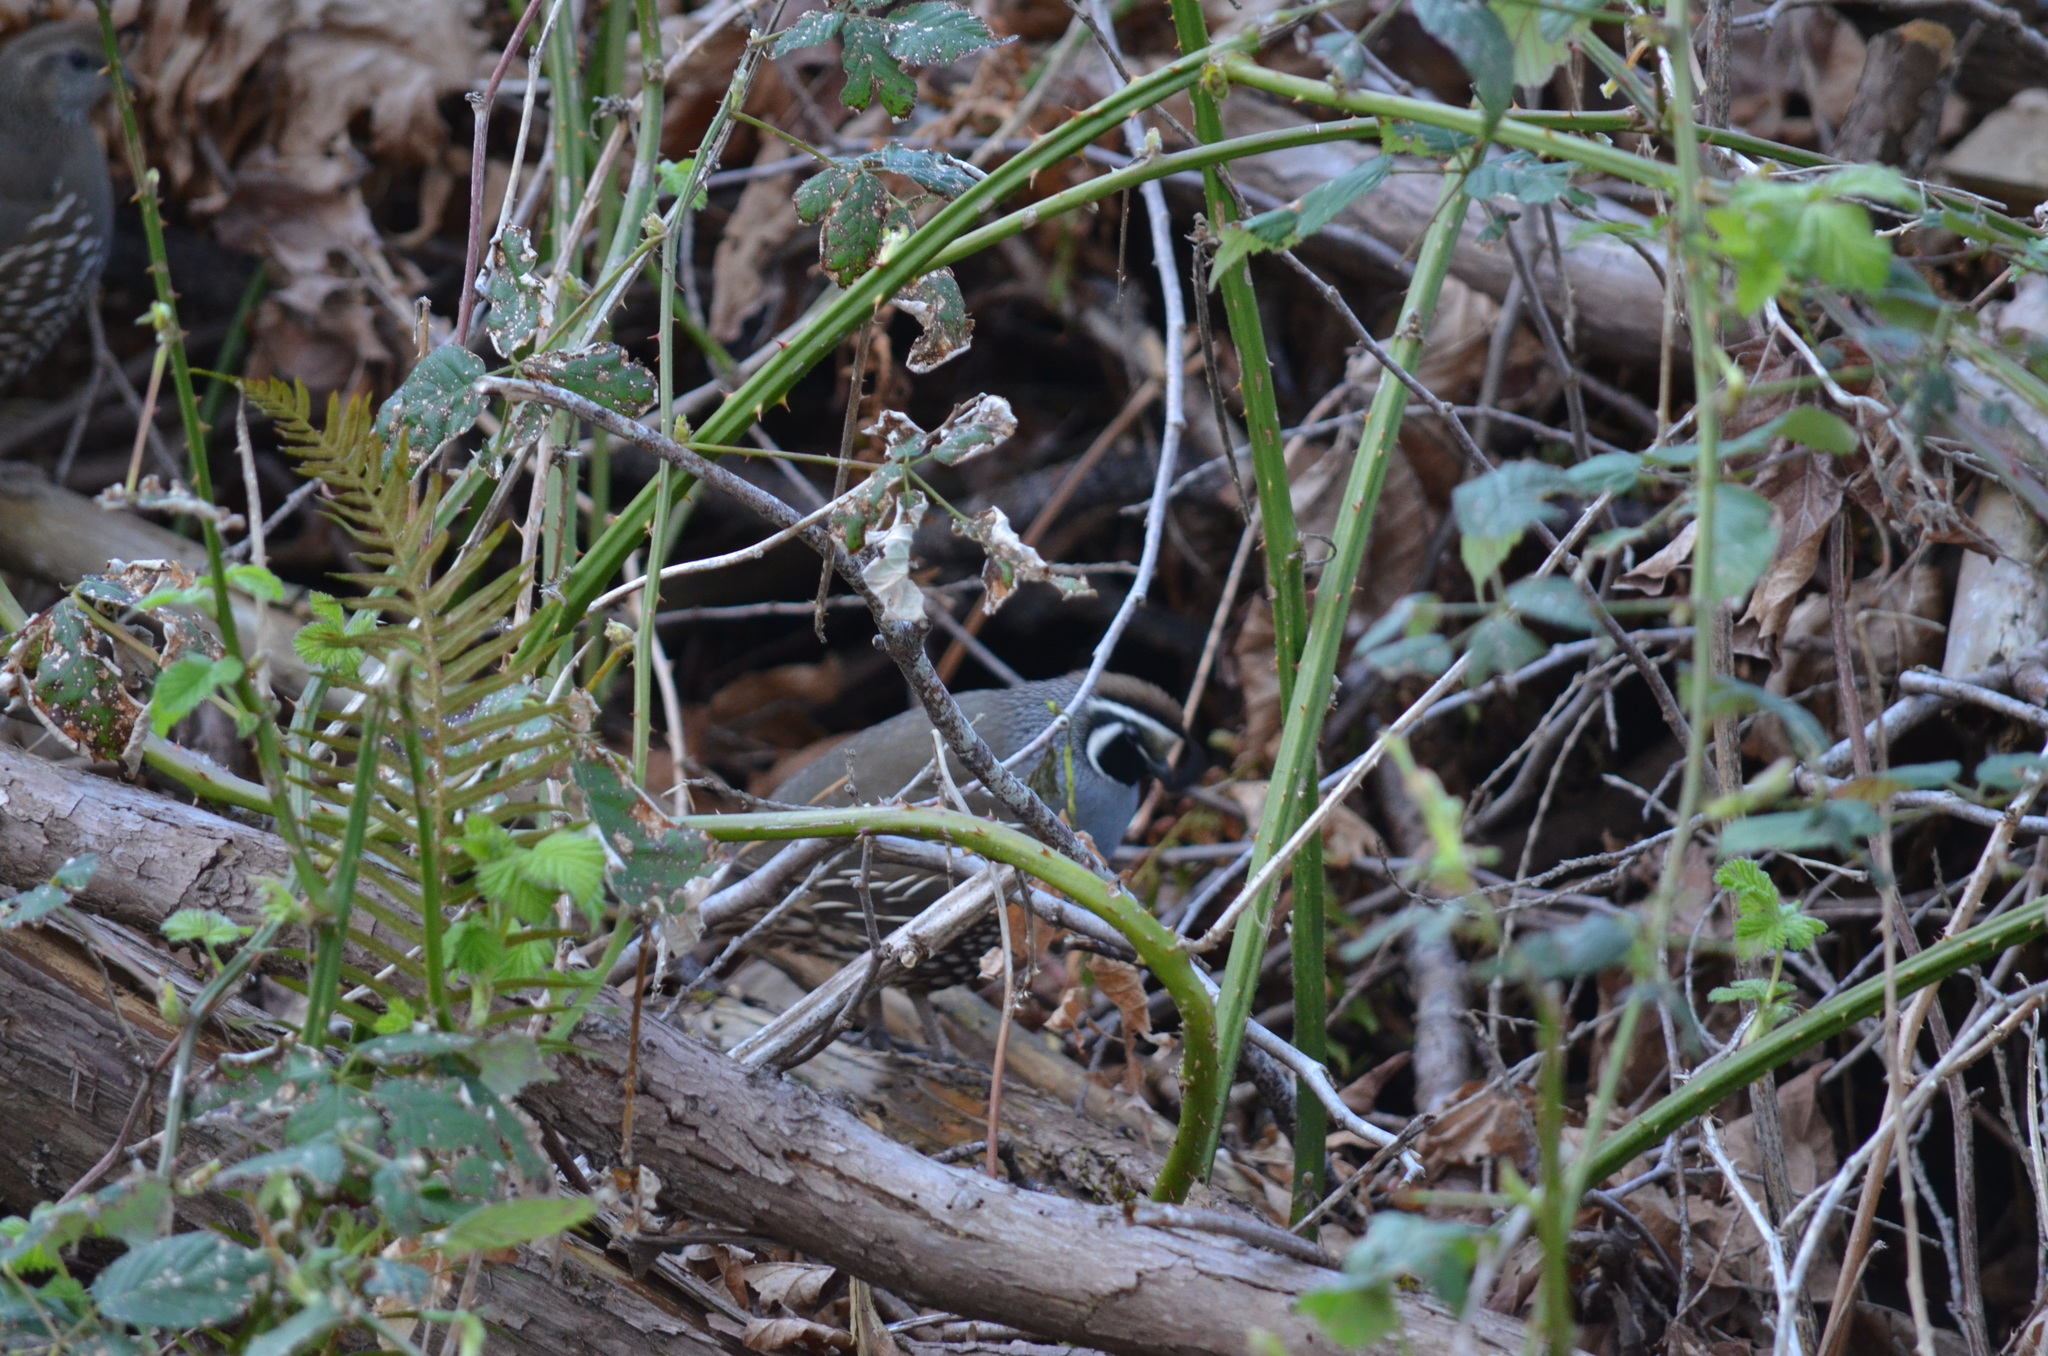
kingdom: Animalia
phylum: Chordata
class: Aves
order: Galliformes
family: Odontophoridae
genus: Callipepla
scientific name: Callipepla californica
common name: California quail
